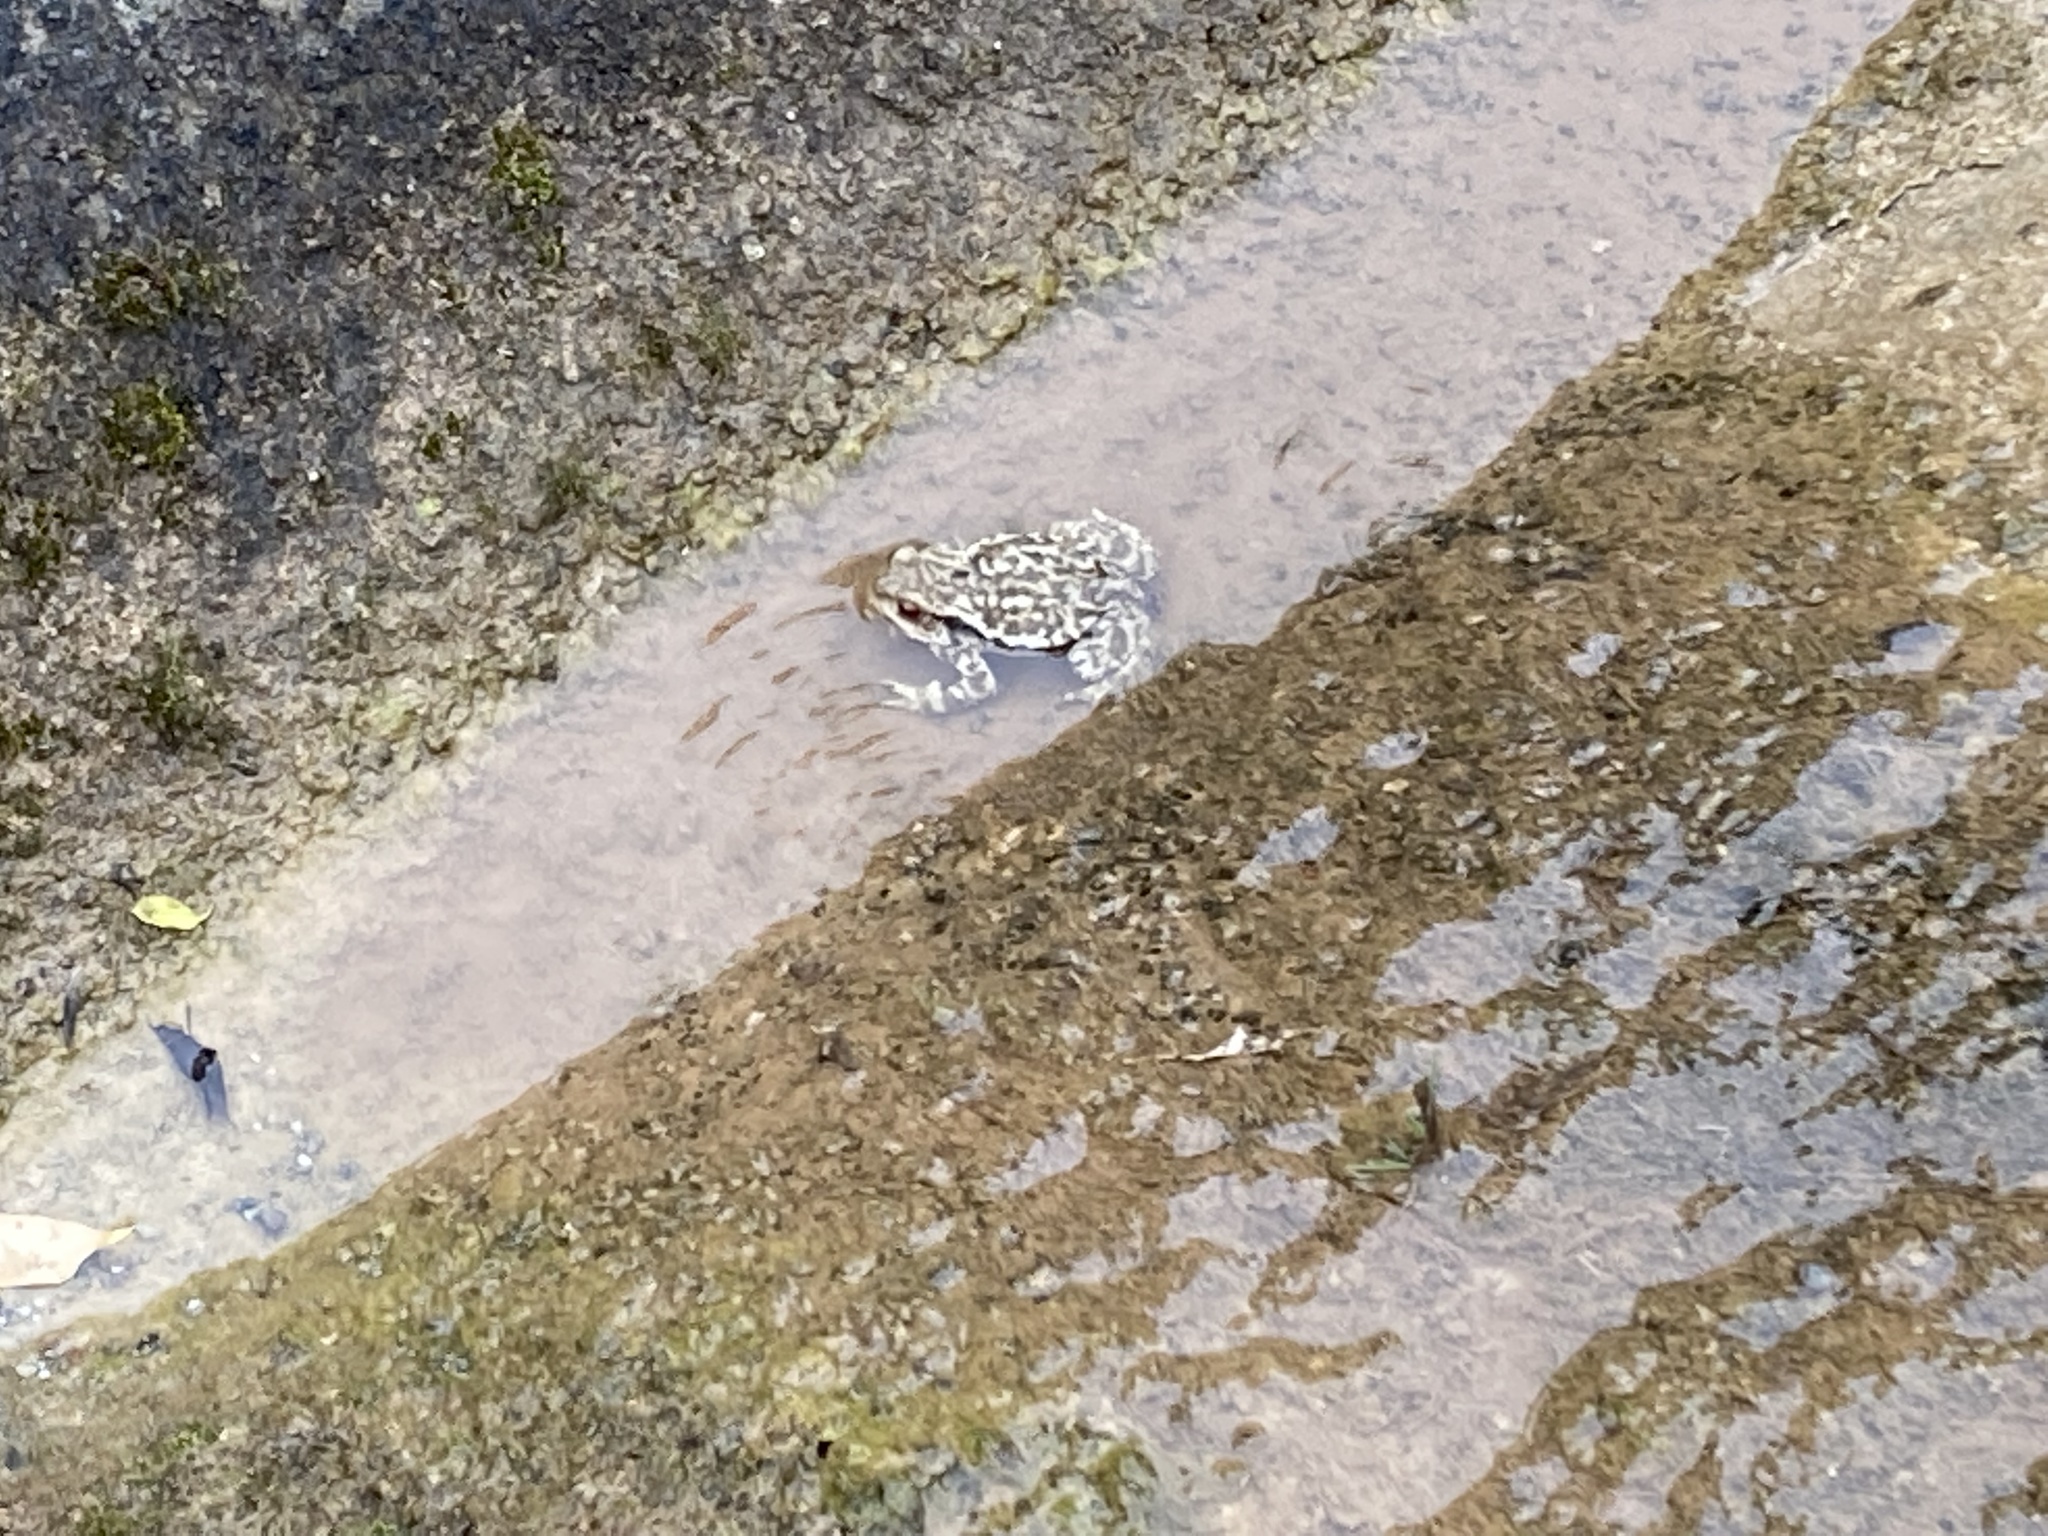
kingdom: Animalia
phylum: Chordata
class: Amphibia
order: Anura
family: Bufonidae
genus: Bufo
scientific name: Bufo spinosus
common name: Western common toad
